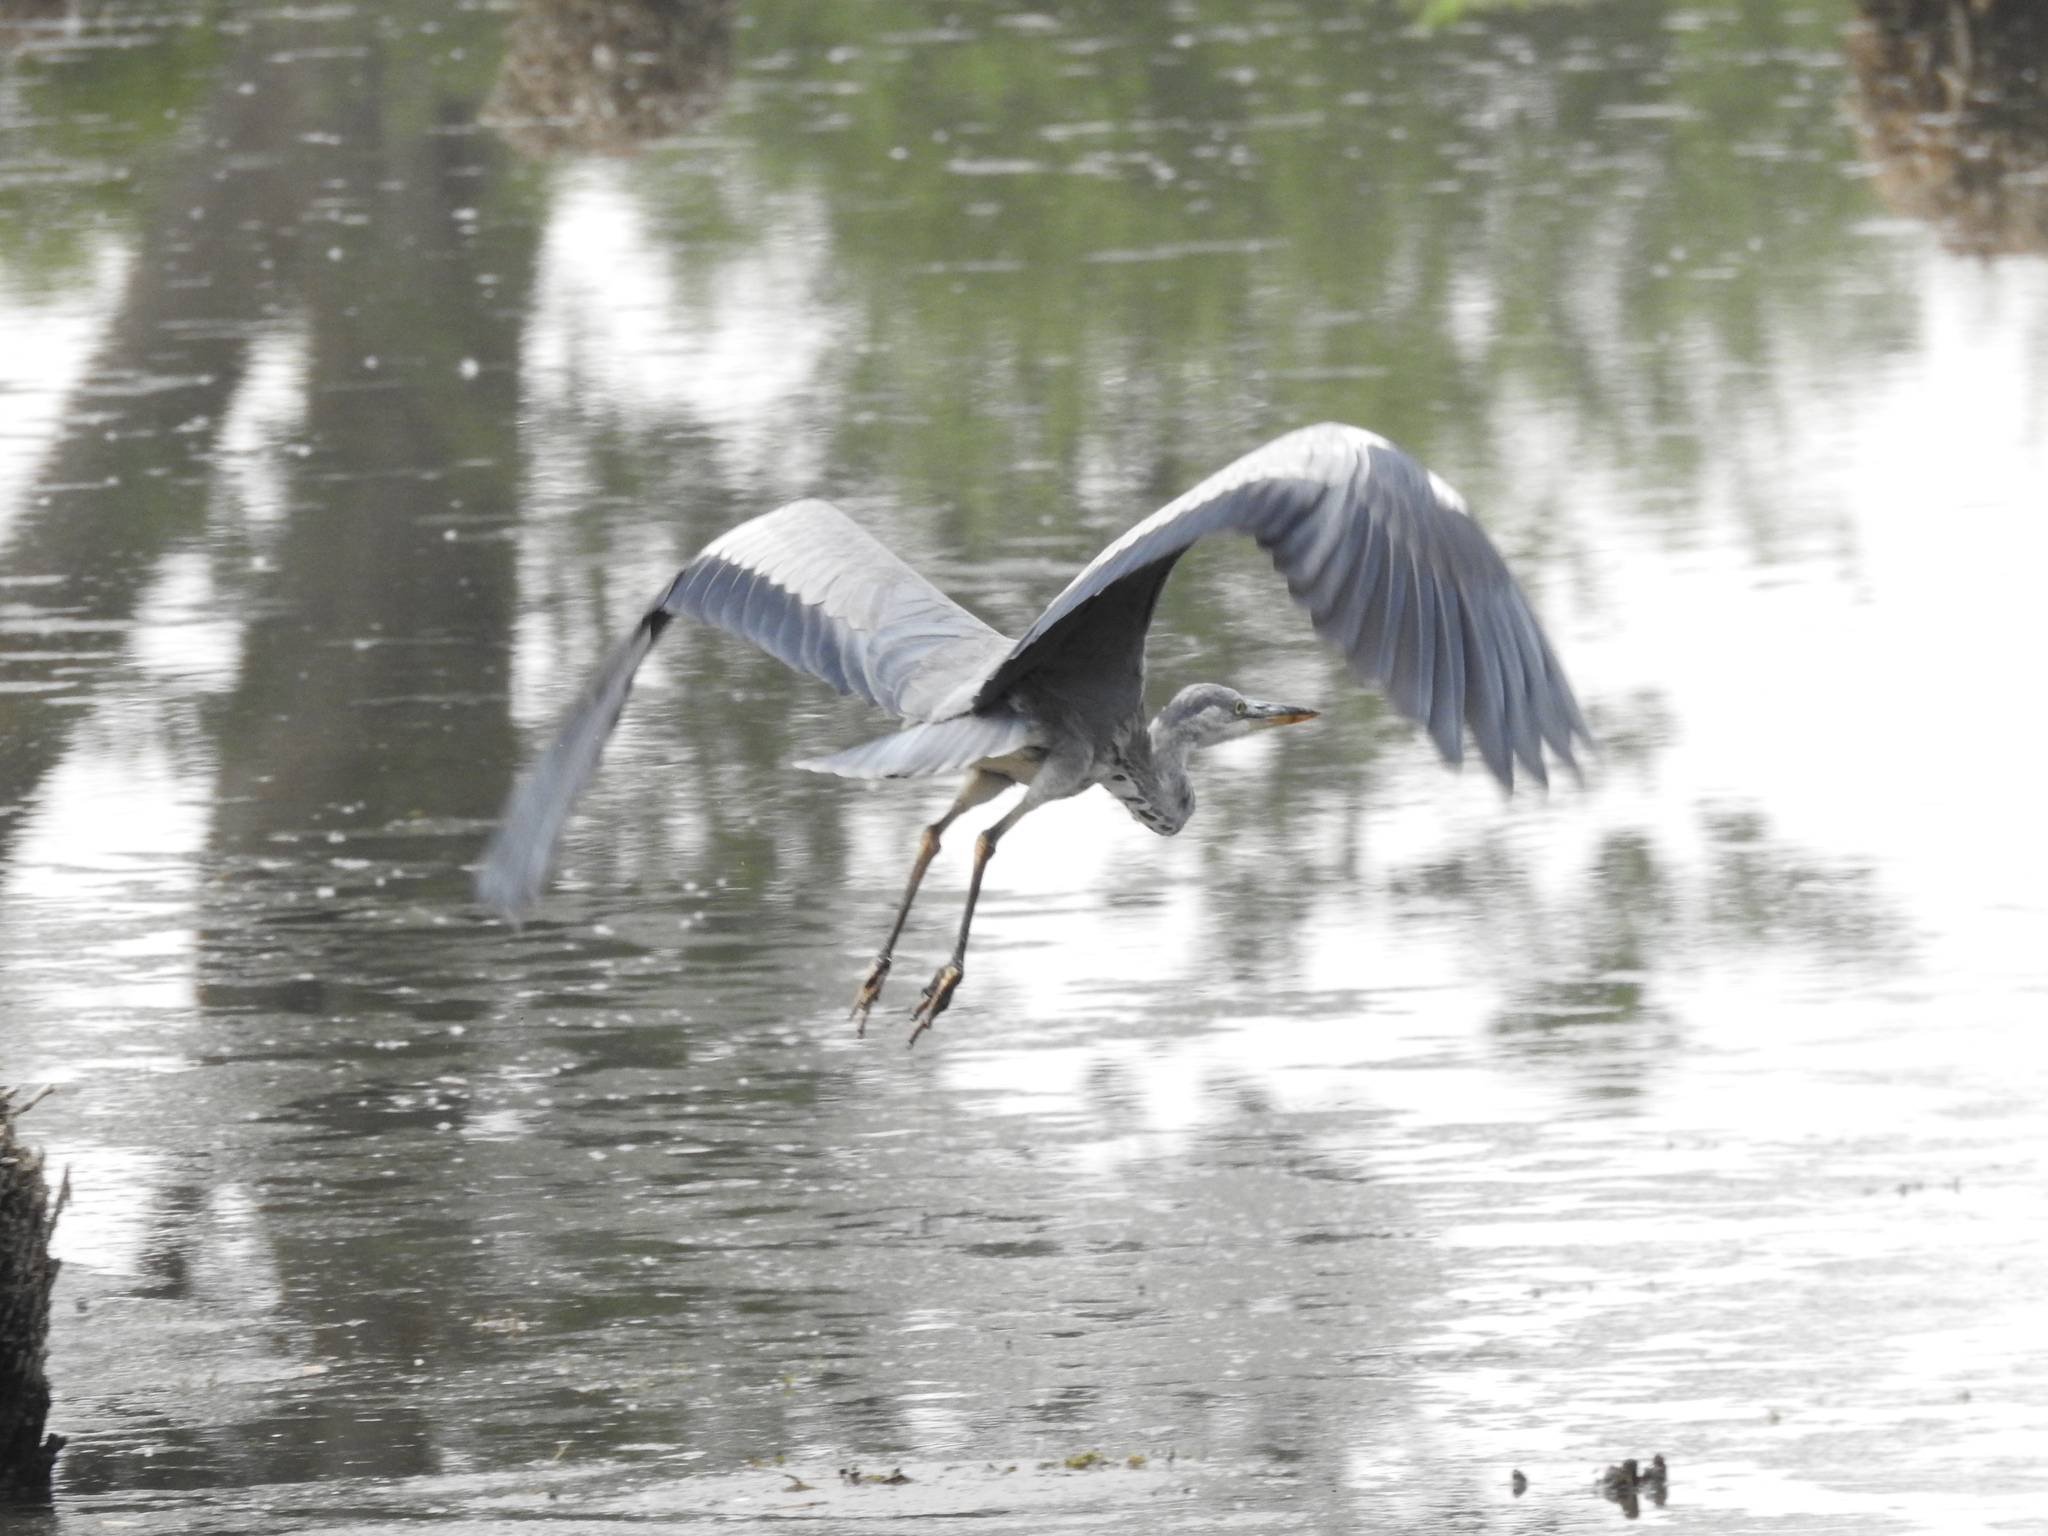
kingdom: Animalia
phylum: Chordata
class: Aves
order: Pelecaniformes
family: Ardeidae
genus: Ardea
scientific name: Ardea cinerea
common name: Grey heron
